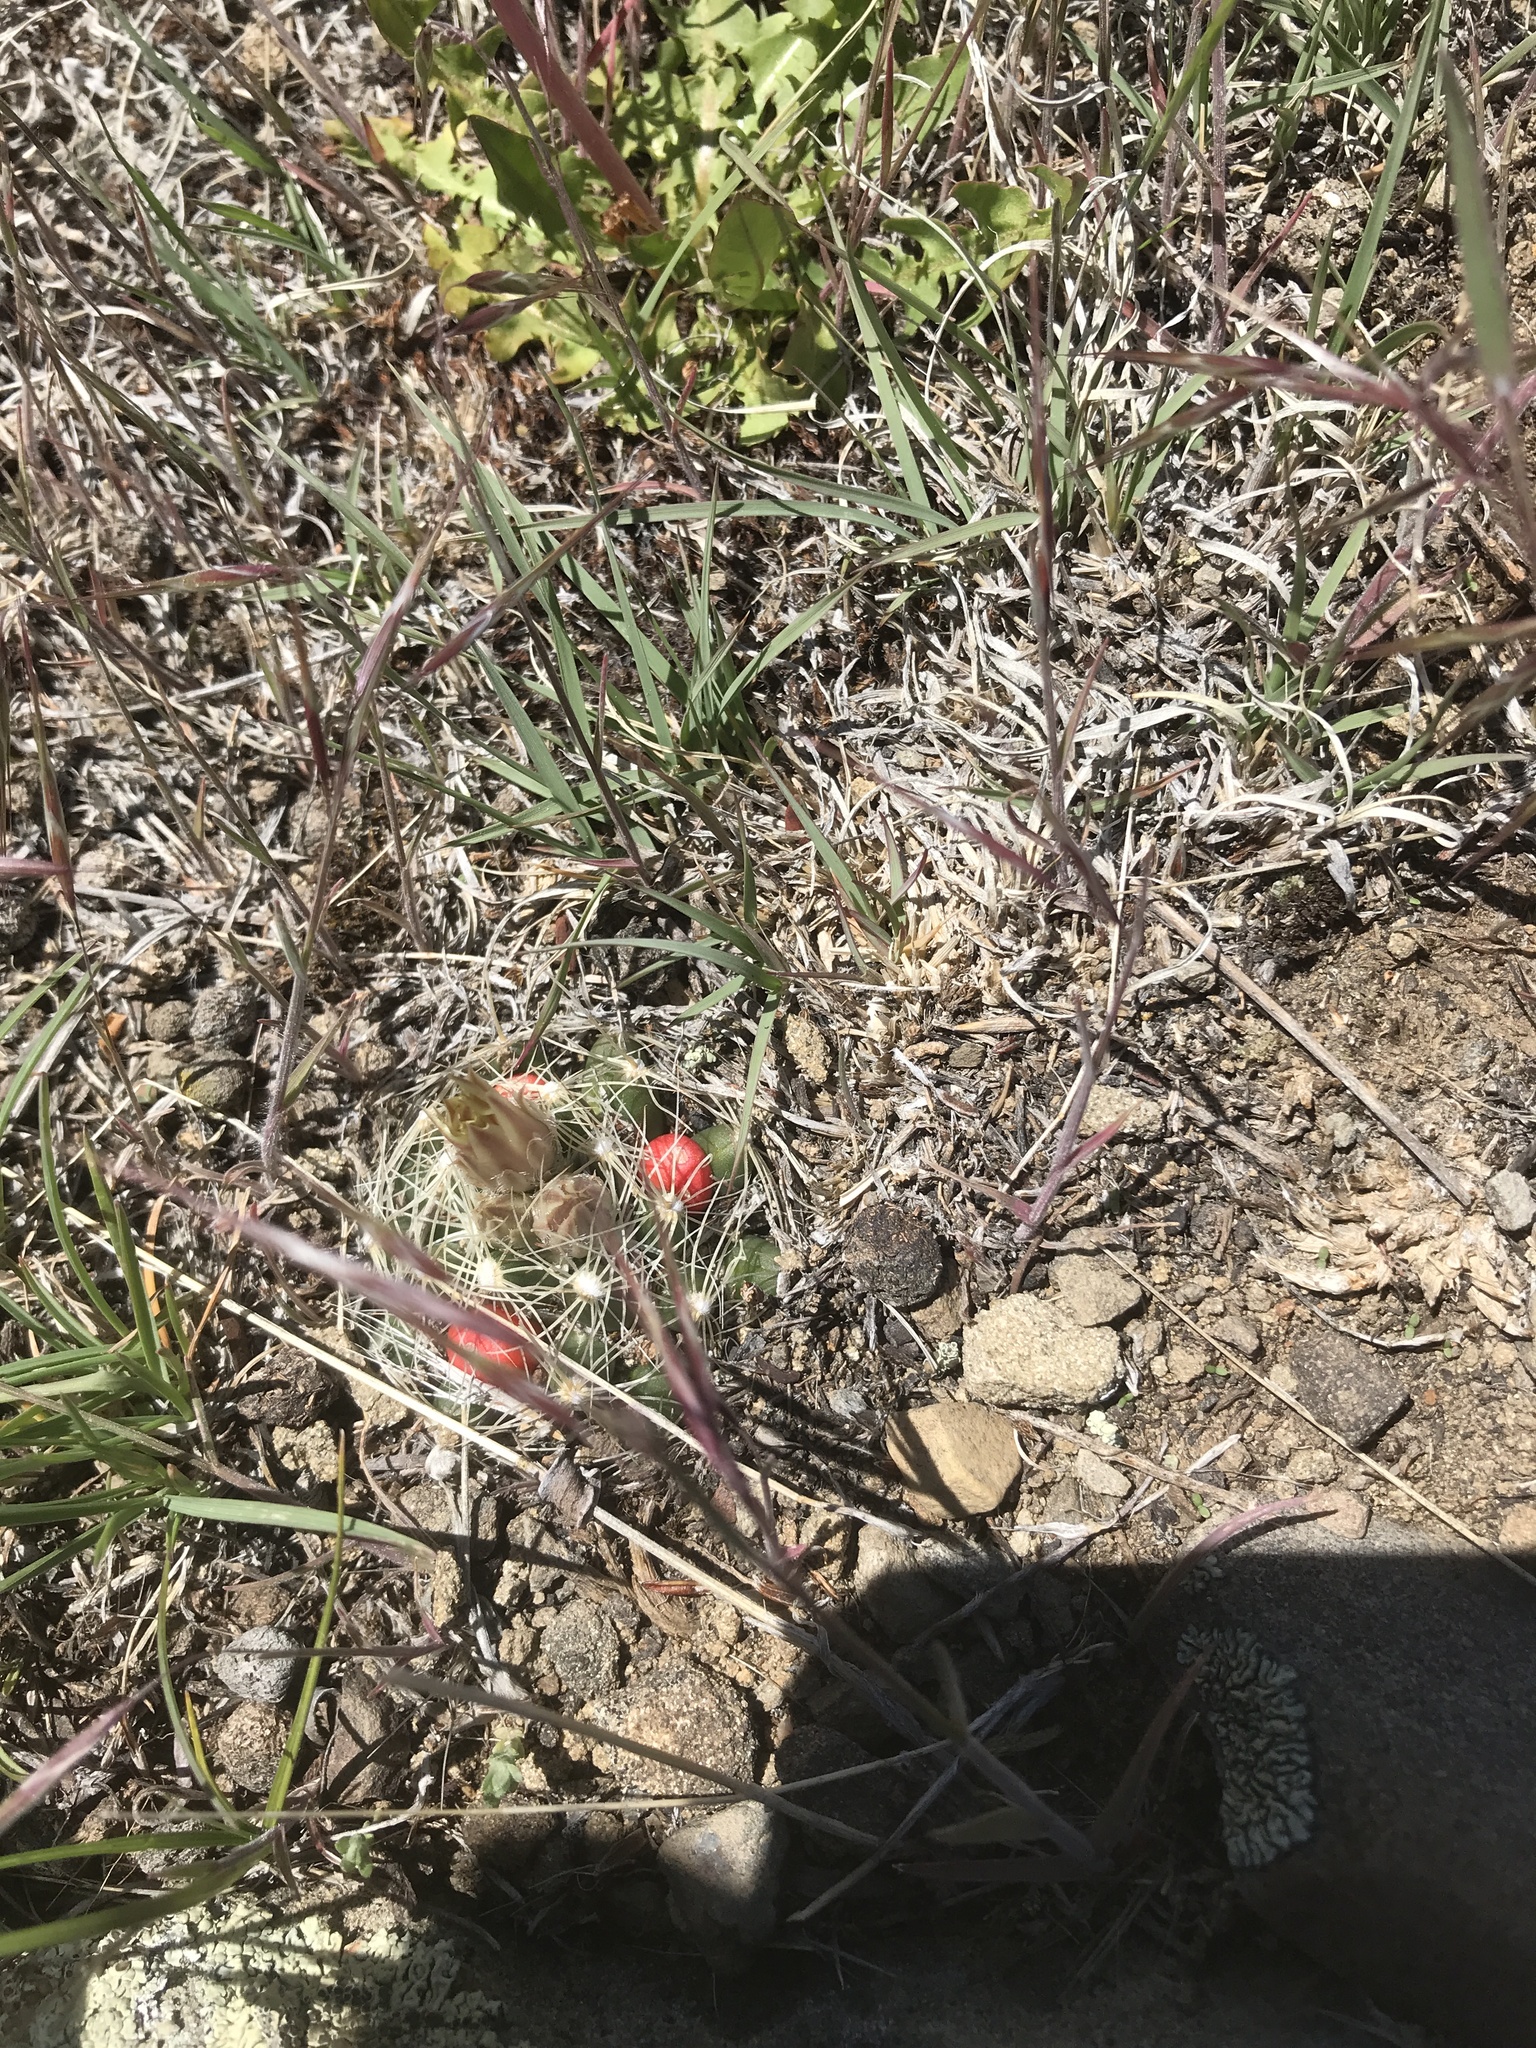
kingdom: Plantae
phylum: Tracheophyta
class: Magnoliopsida
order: Caryophyllales
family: Cactaceae
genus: Pelecyphora
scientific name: Pelecyphora missouriensis
